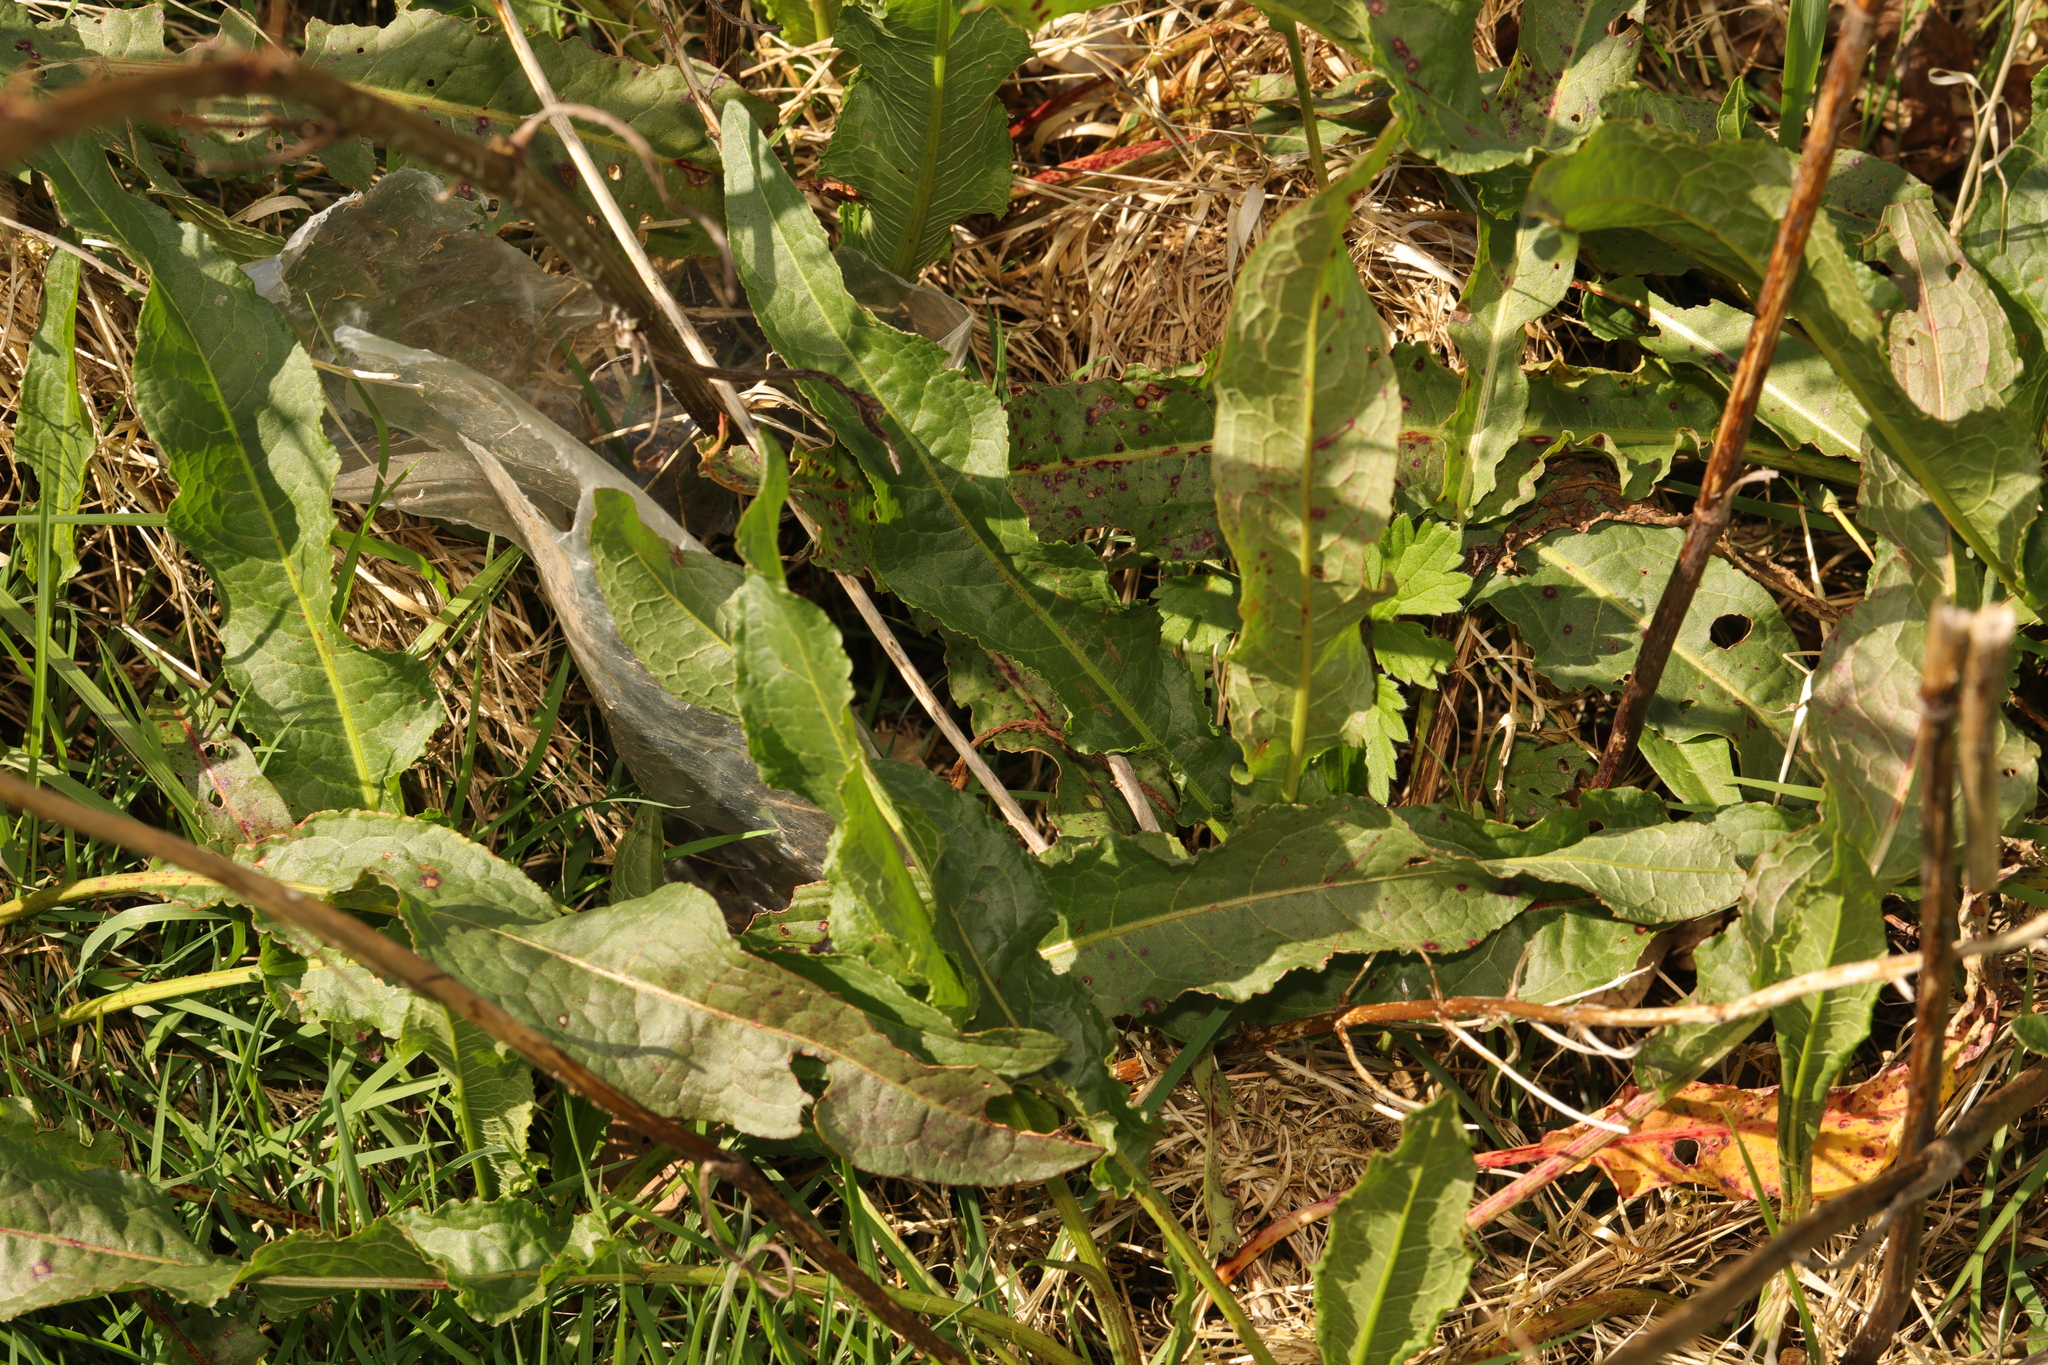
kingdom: Plantae
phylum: Tracheophyta
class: Magnoliopsida
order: Caryophyllales
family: Polygonaceae
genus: Rumex
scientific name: Rumex crispus
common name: Curled dock
